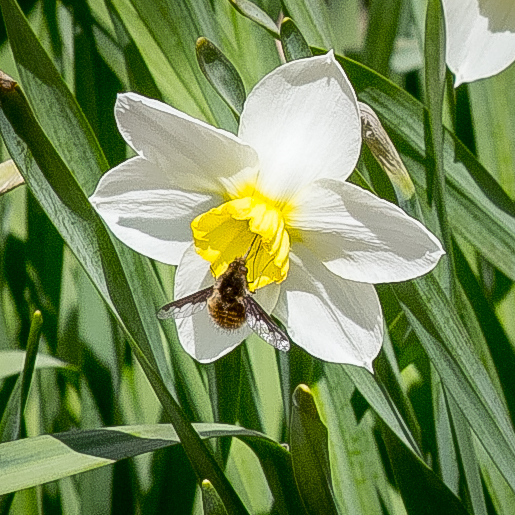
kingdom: Animalia
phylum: Arthropoda
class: Insecta
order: Diptera
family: Bombyliidae
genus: Bombylius
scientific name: Bombylius major
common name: Bee fly
